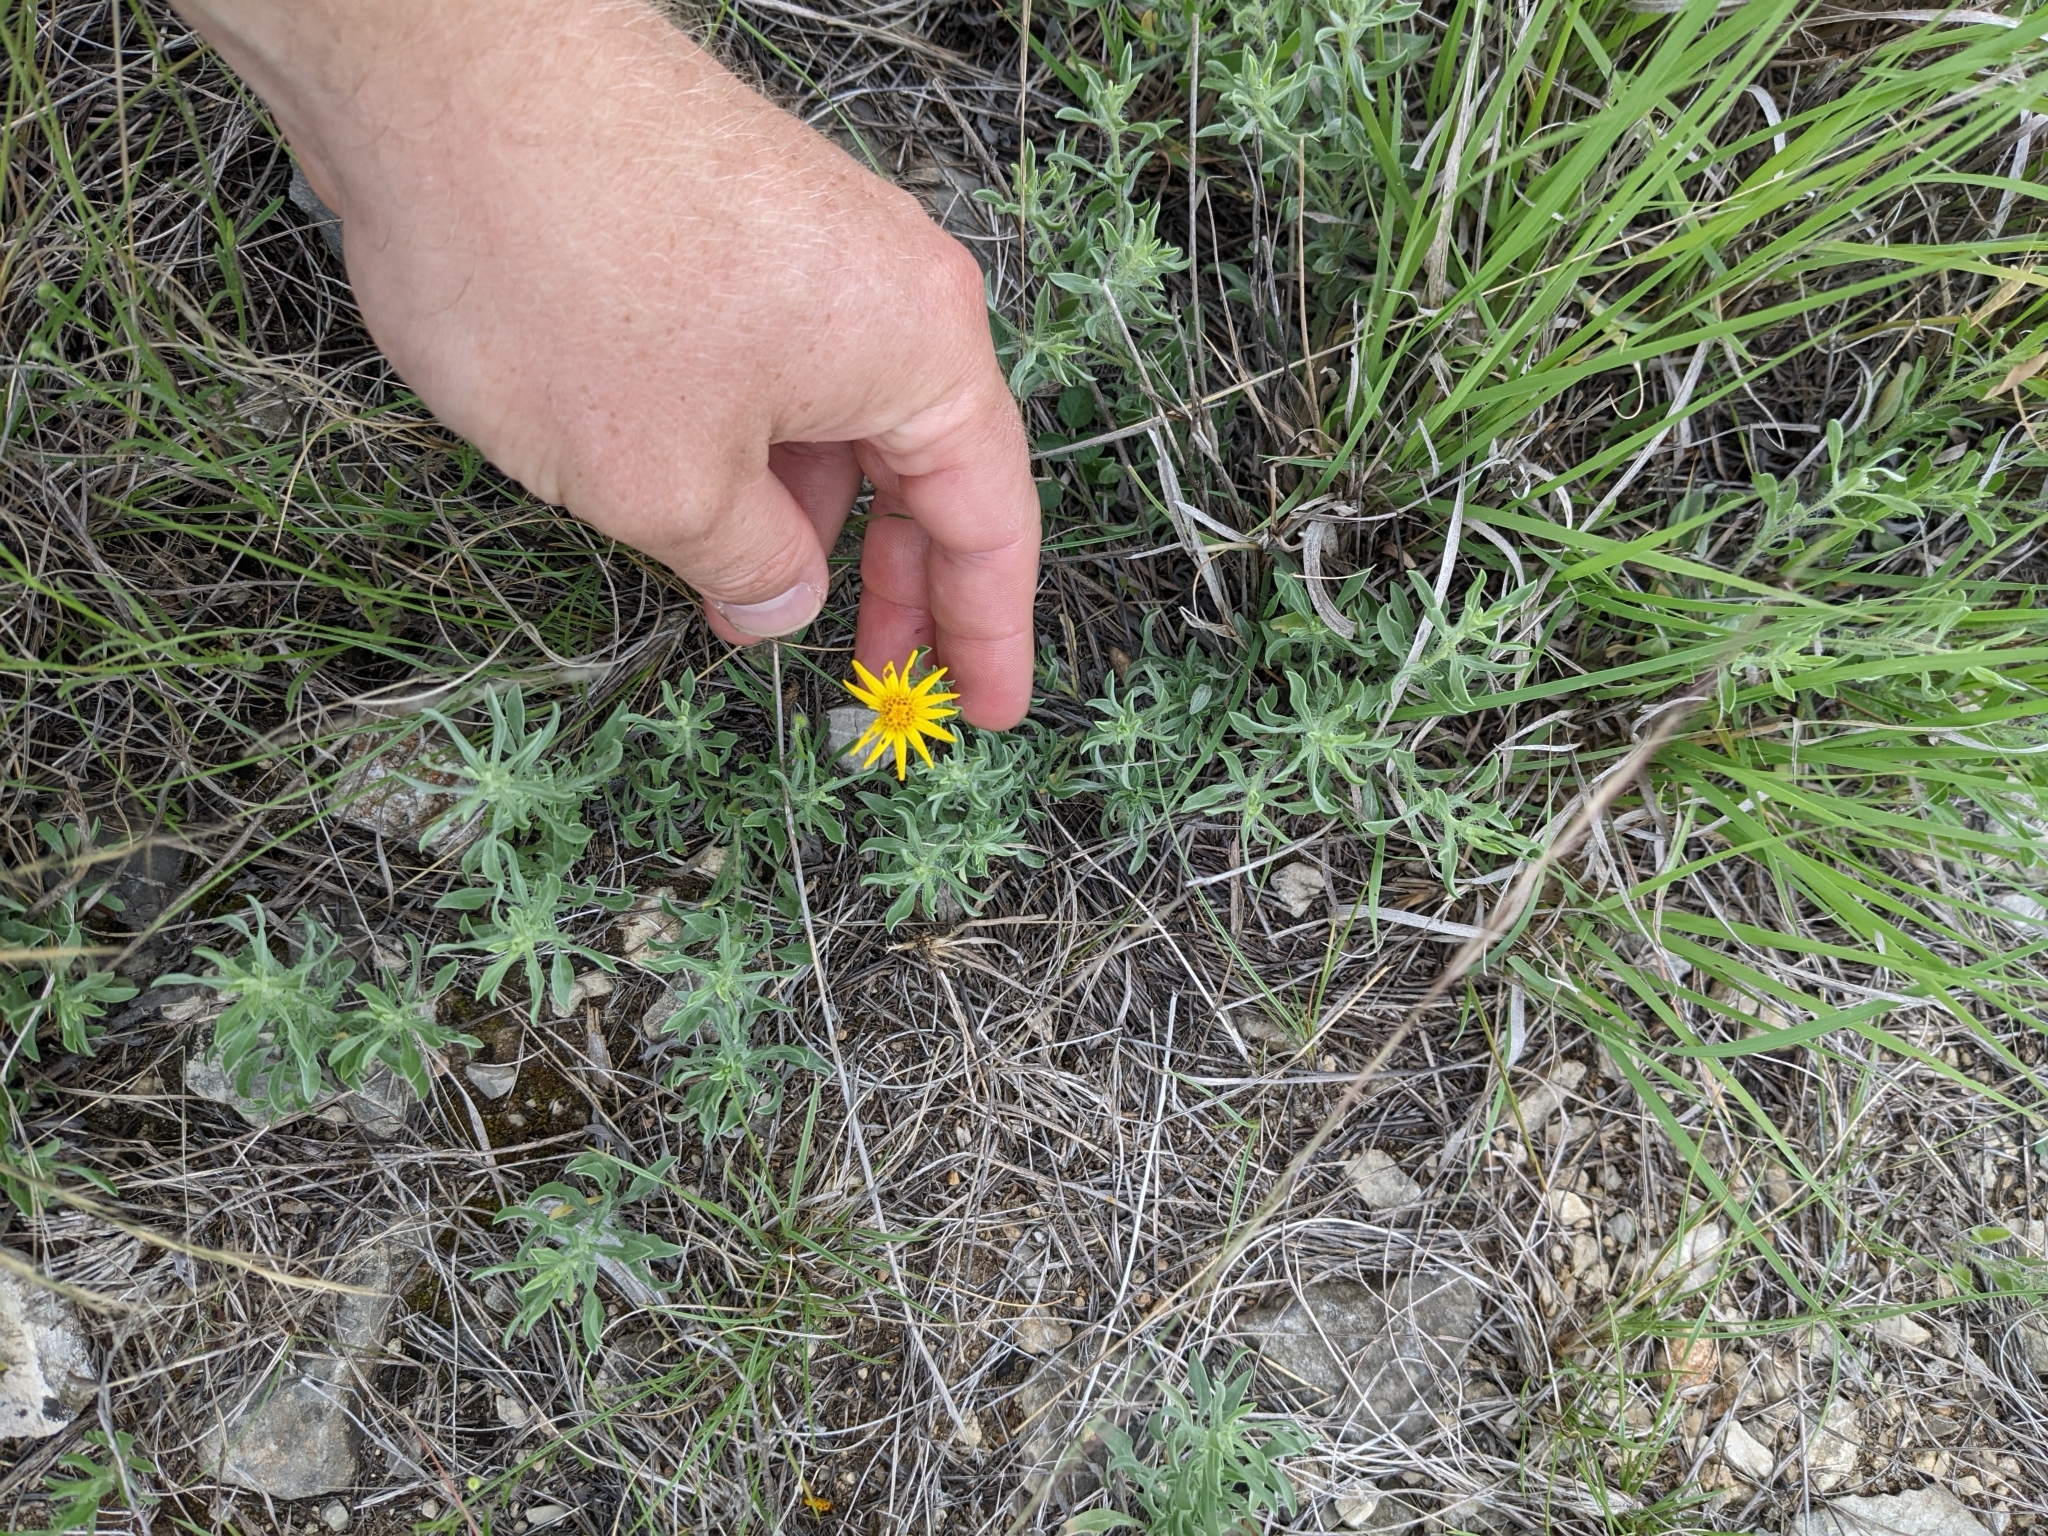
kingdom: Plantae
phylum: Tracheophyta
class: Magnoliopsida
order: Asterales
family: Asteraceae
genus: Heterotheca
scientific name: Heterotheca canescens
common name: Hoary golden-aster
